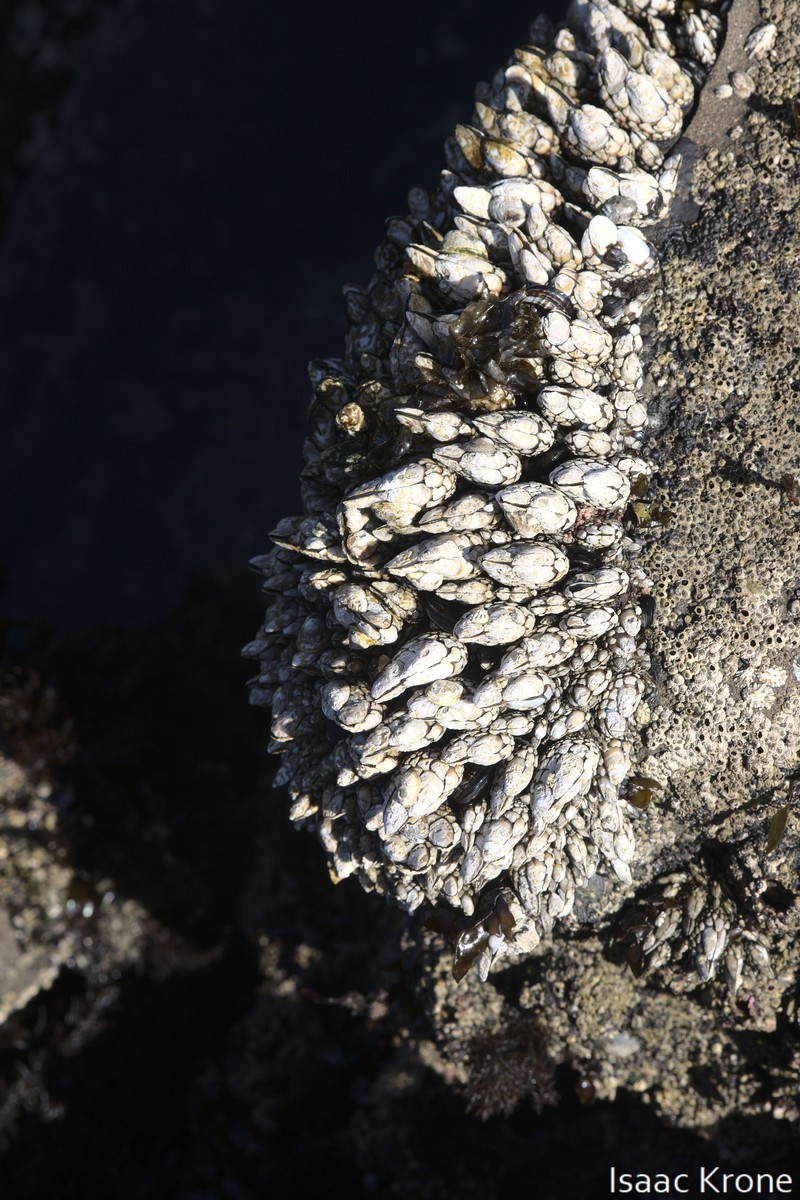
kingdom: Animalia
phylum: Arthropoda
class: Maxillopoda
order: Pedunculata
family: Pollicipedidae
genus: Pollicipes
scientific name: Pollicipes polymerus
